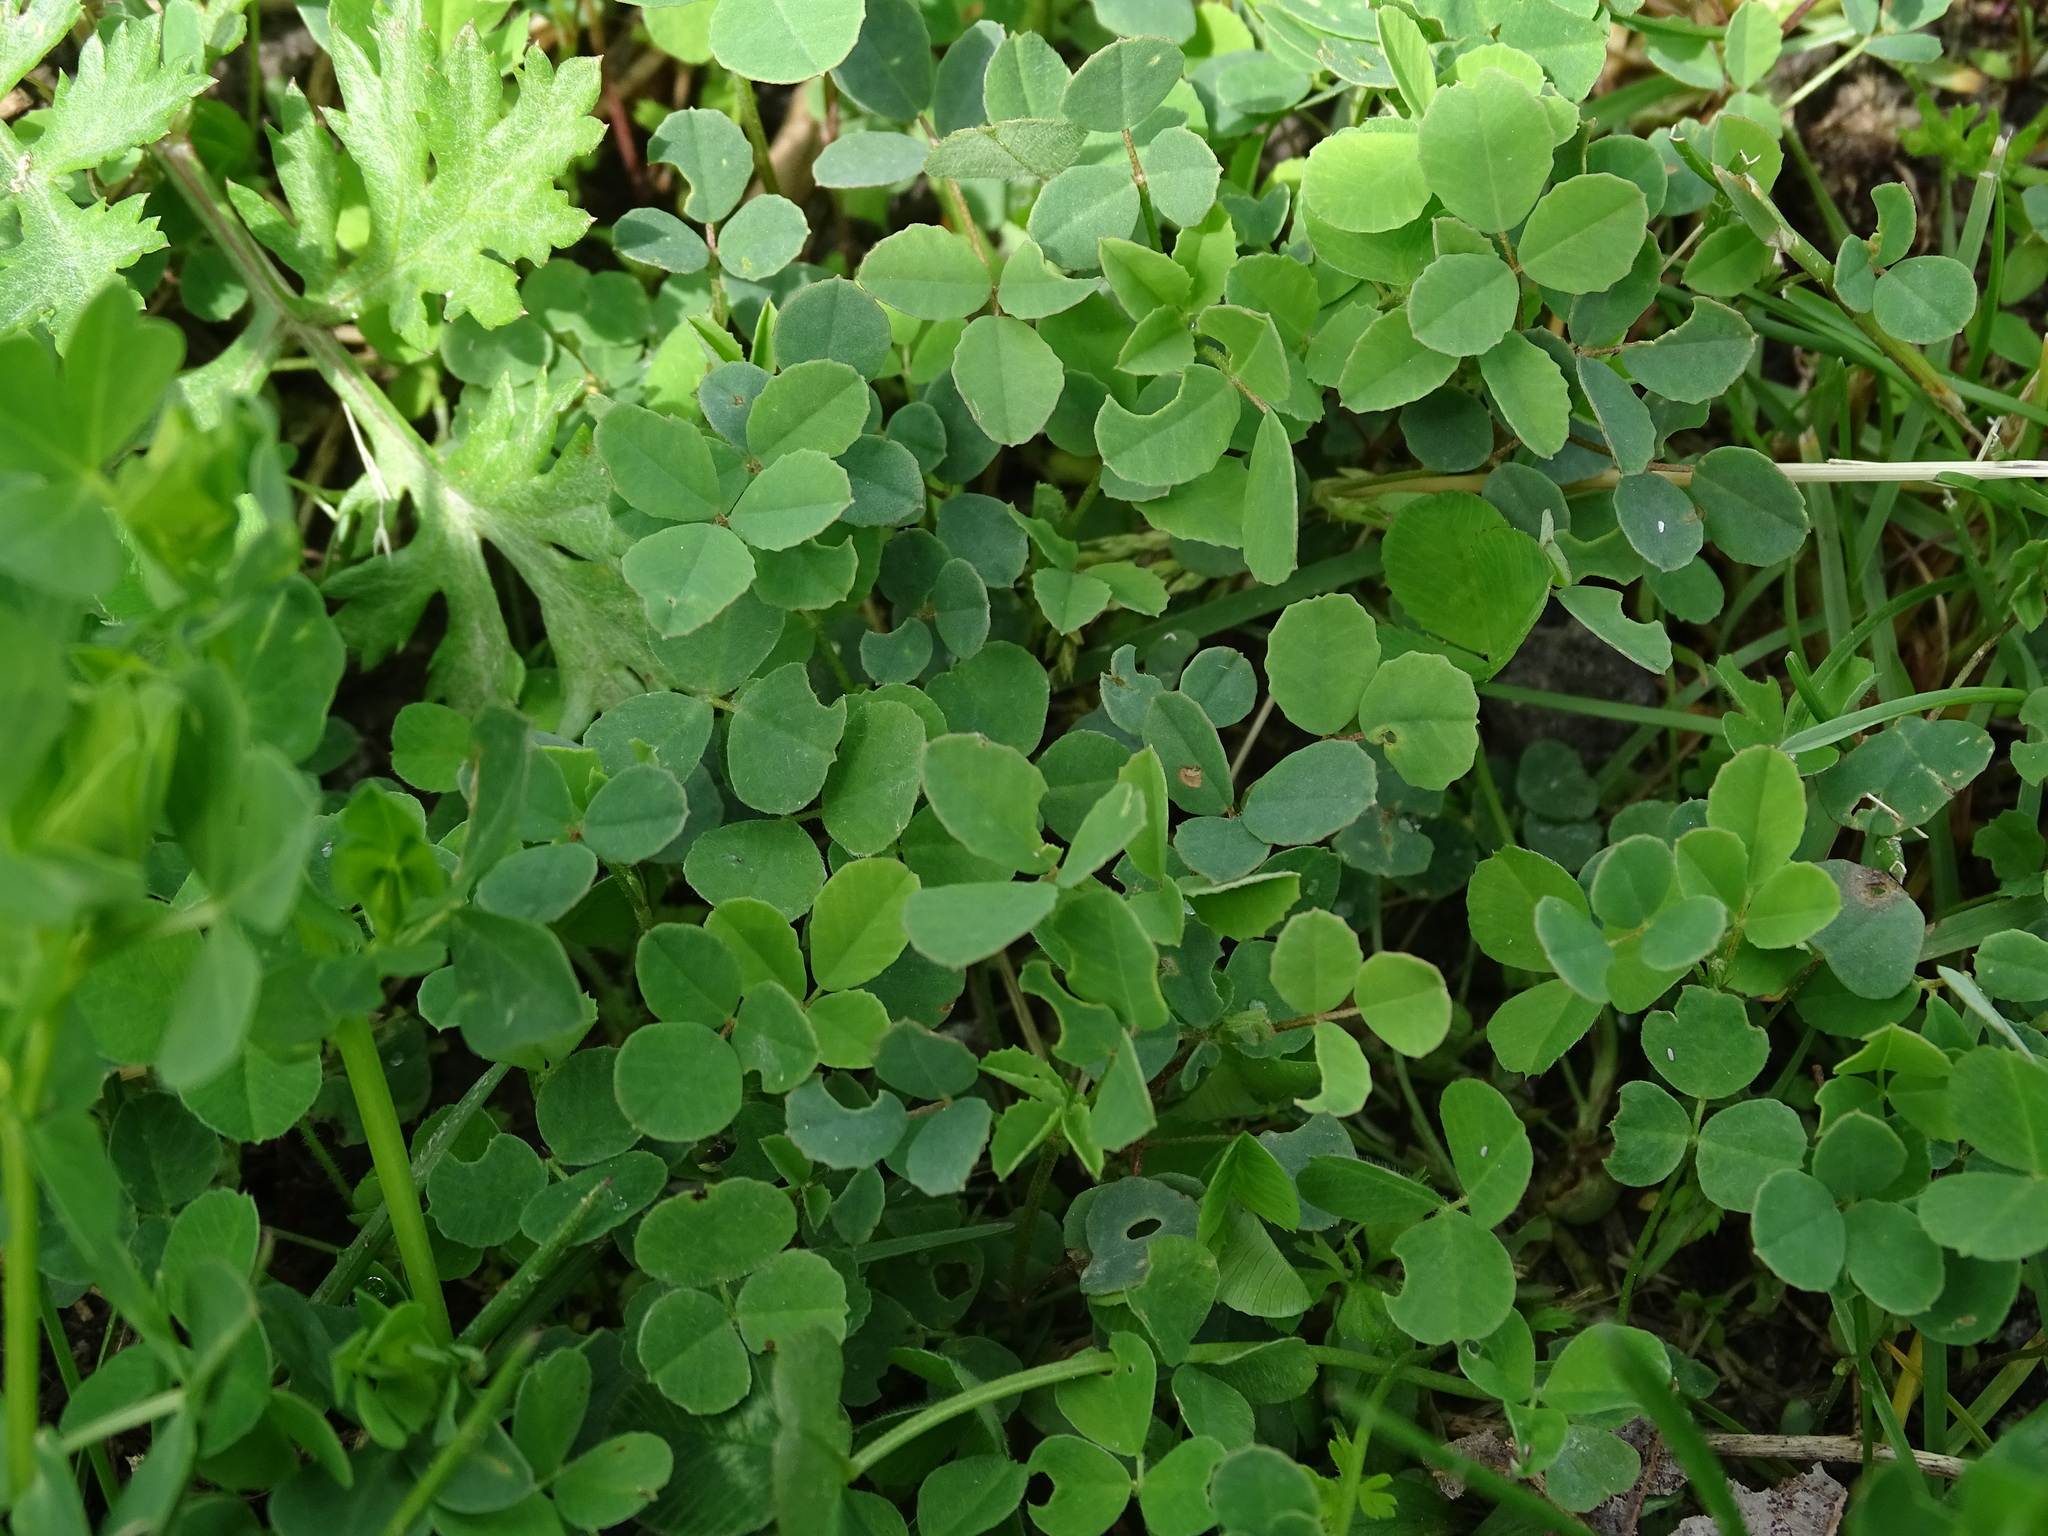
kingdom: Plantae
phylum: Tracheophyta
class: Magnoliopsida
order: Fabales
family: Fabaceae
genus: Medicago
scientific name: Medicago lupulina
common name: Black medick
